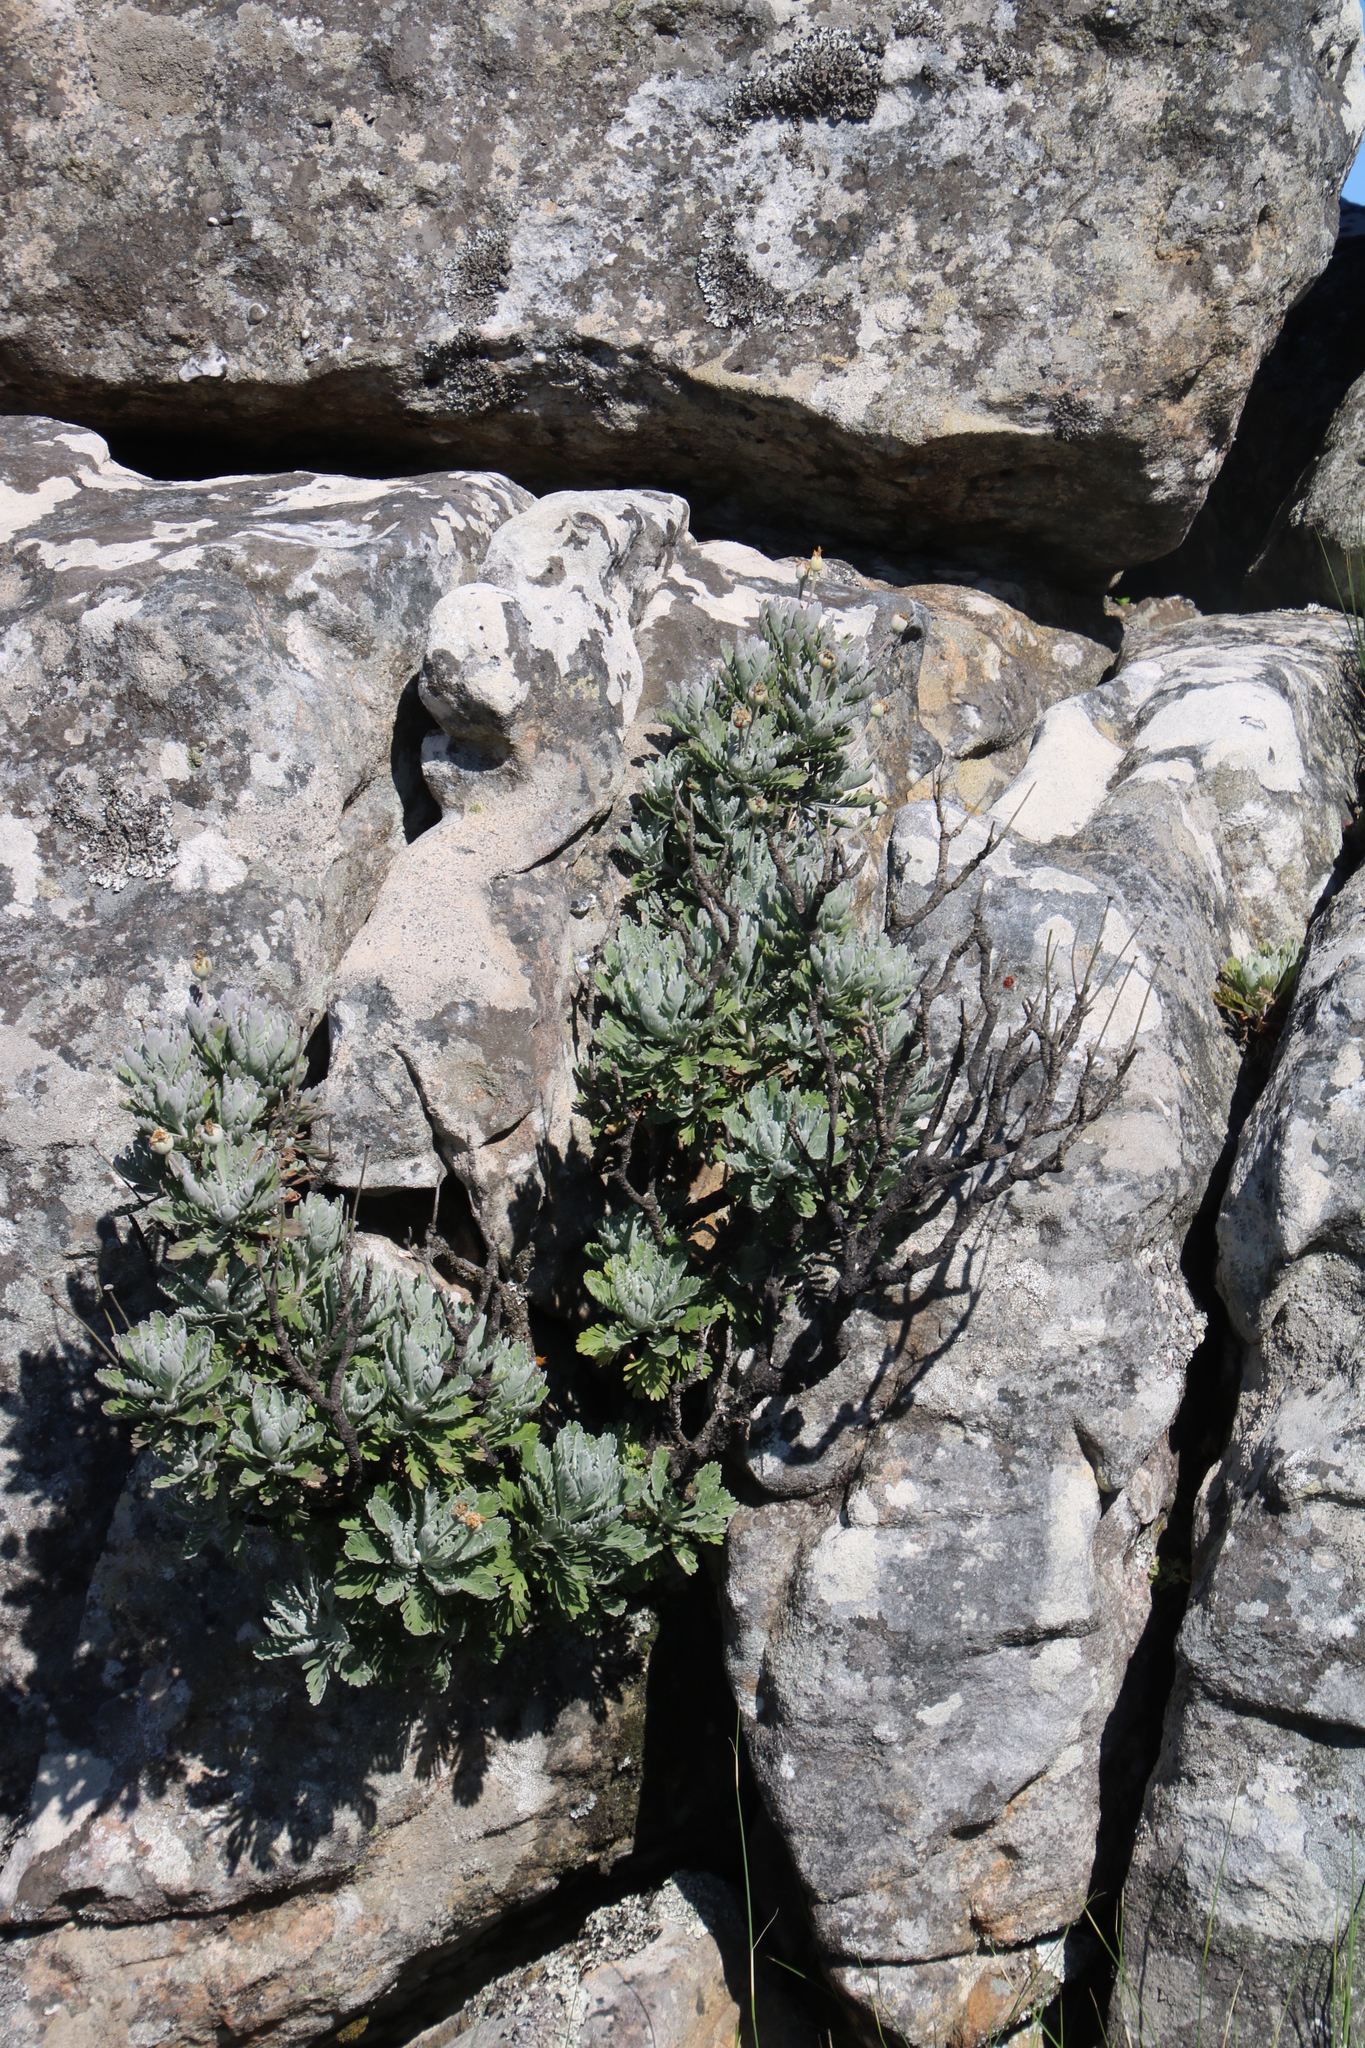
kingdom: Plantae
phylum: Tracheophyta
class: Magnoliopsida
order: Asterales
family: Asteraceae
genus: Euryops
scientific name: Euryops pectinatus
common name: Gray-leaf euryops
